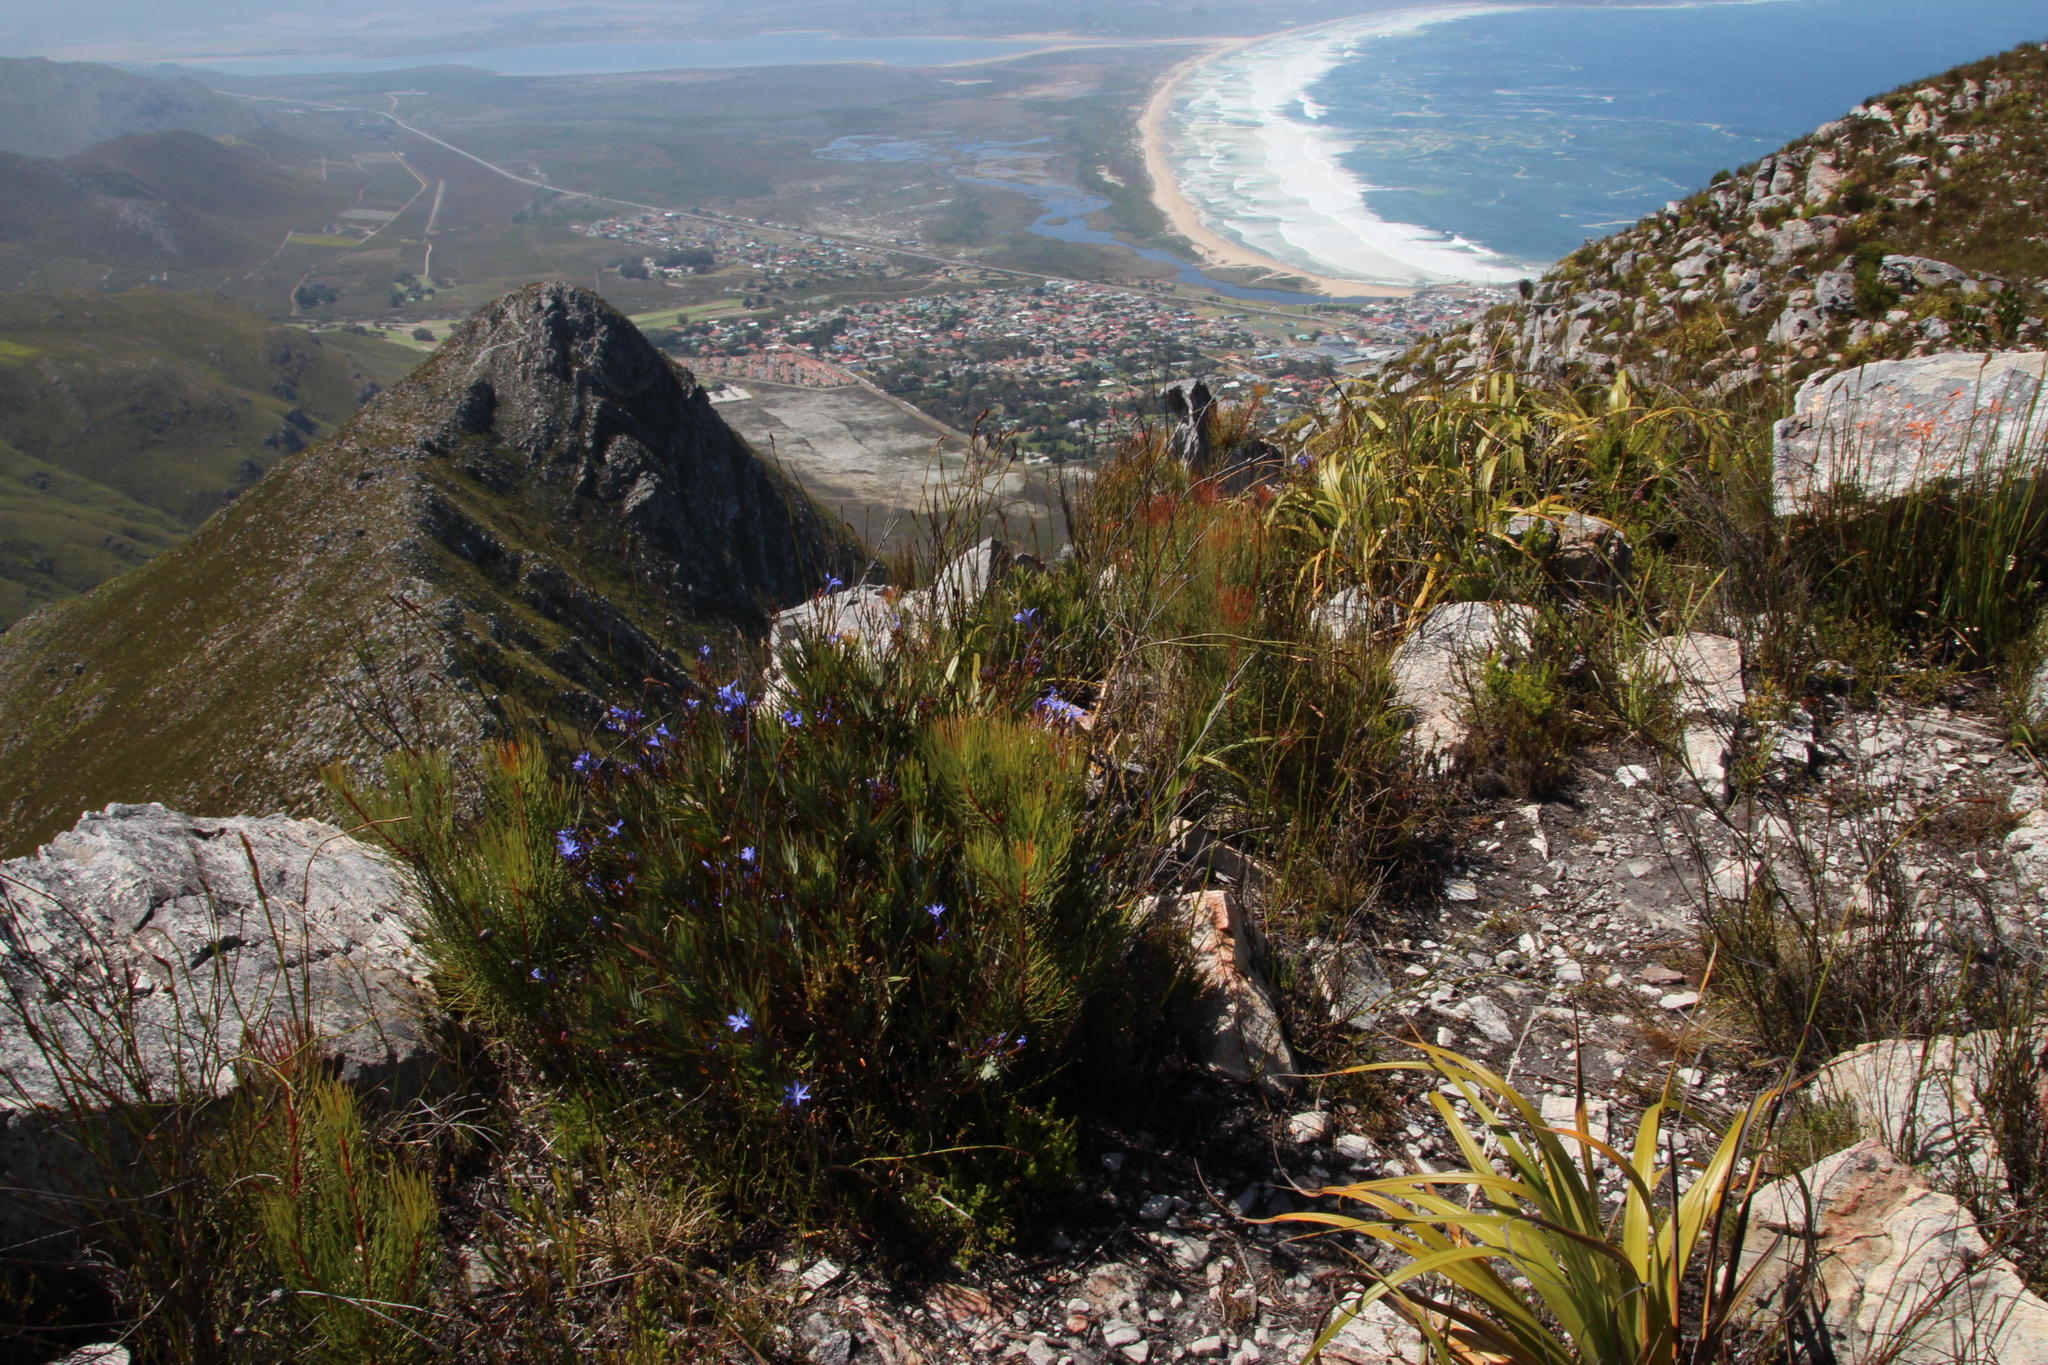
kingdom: Plantae
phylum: Tracheophyta
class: Magnoliopsida
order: Proteales
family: Proteaceae
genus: Aulax
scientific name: Aulax cancellata
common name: Channel-leaf featherbush
